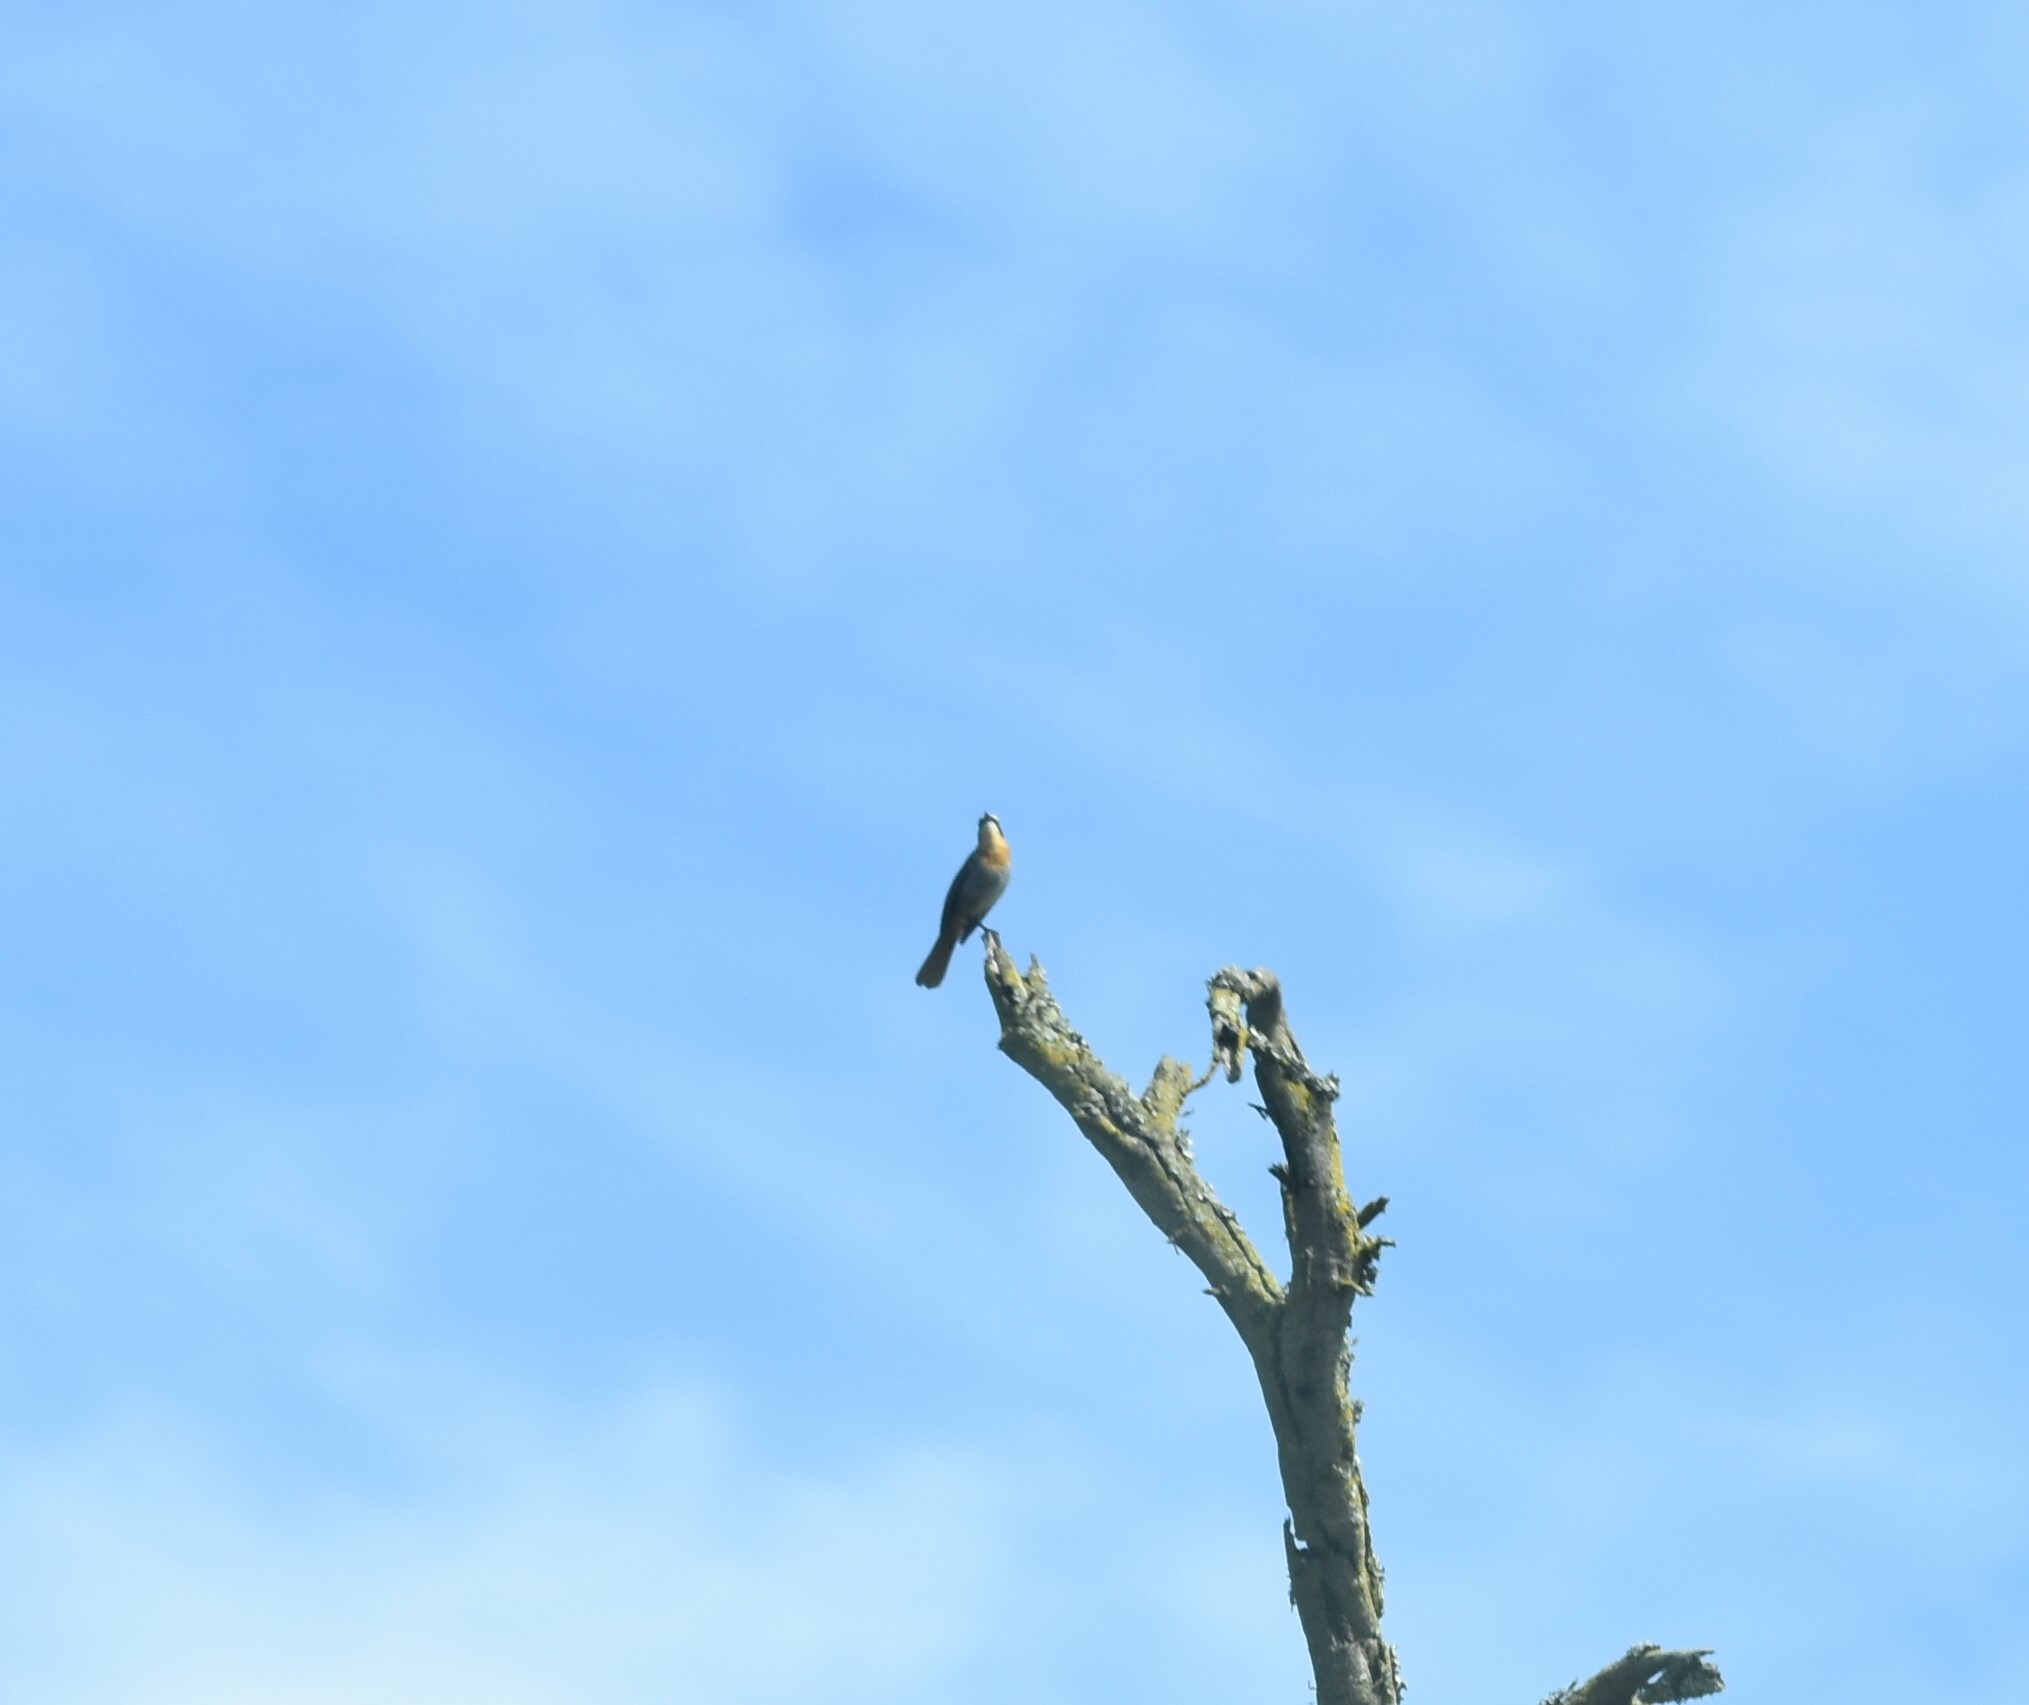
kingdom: Animalia
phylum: Chordata
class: Aves
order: Passeriformes
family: Muscicapidae
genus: Cossypha
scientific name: Cossypha caffra
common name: Cape robin-chat
